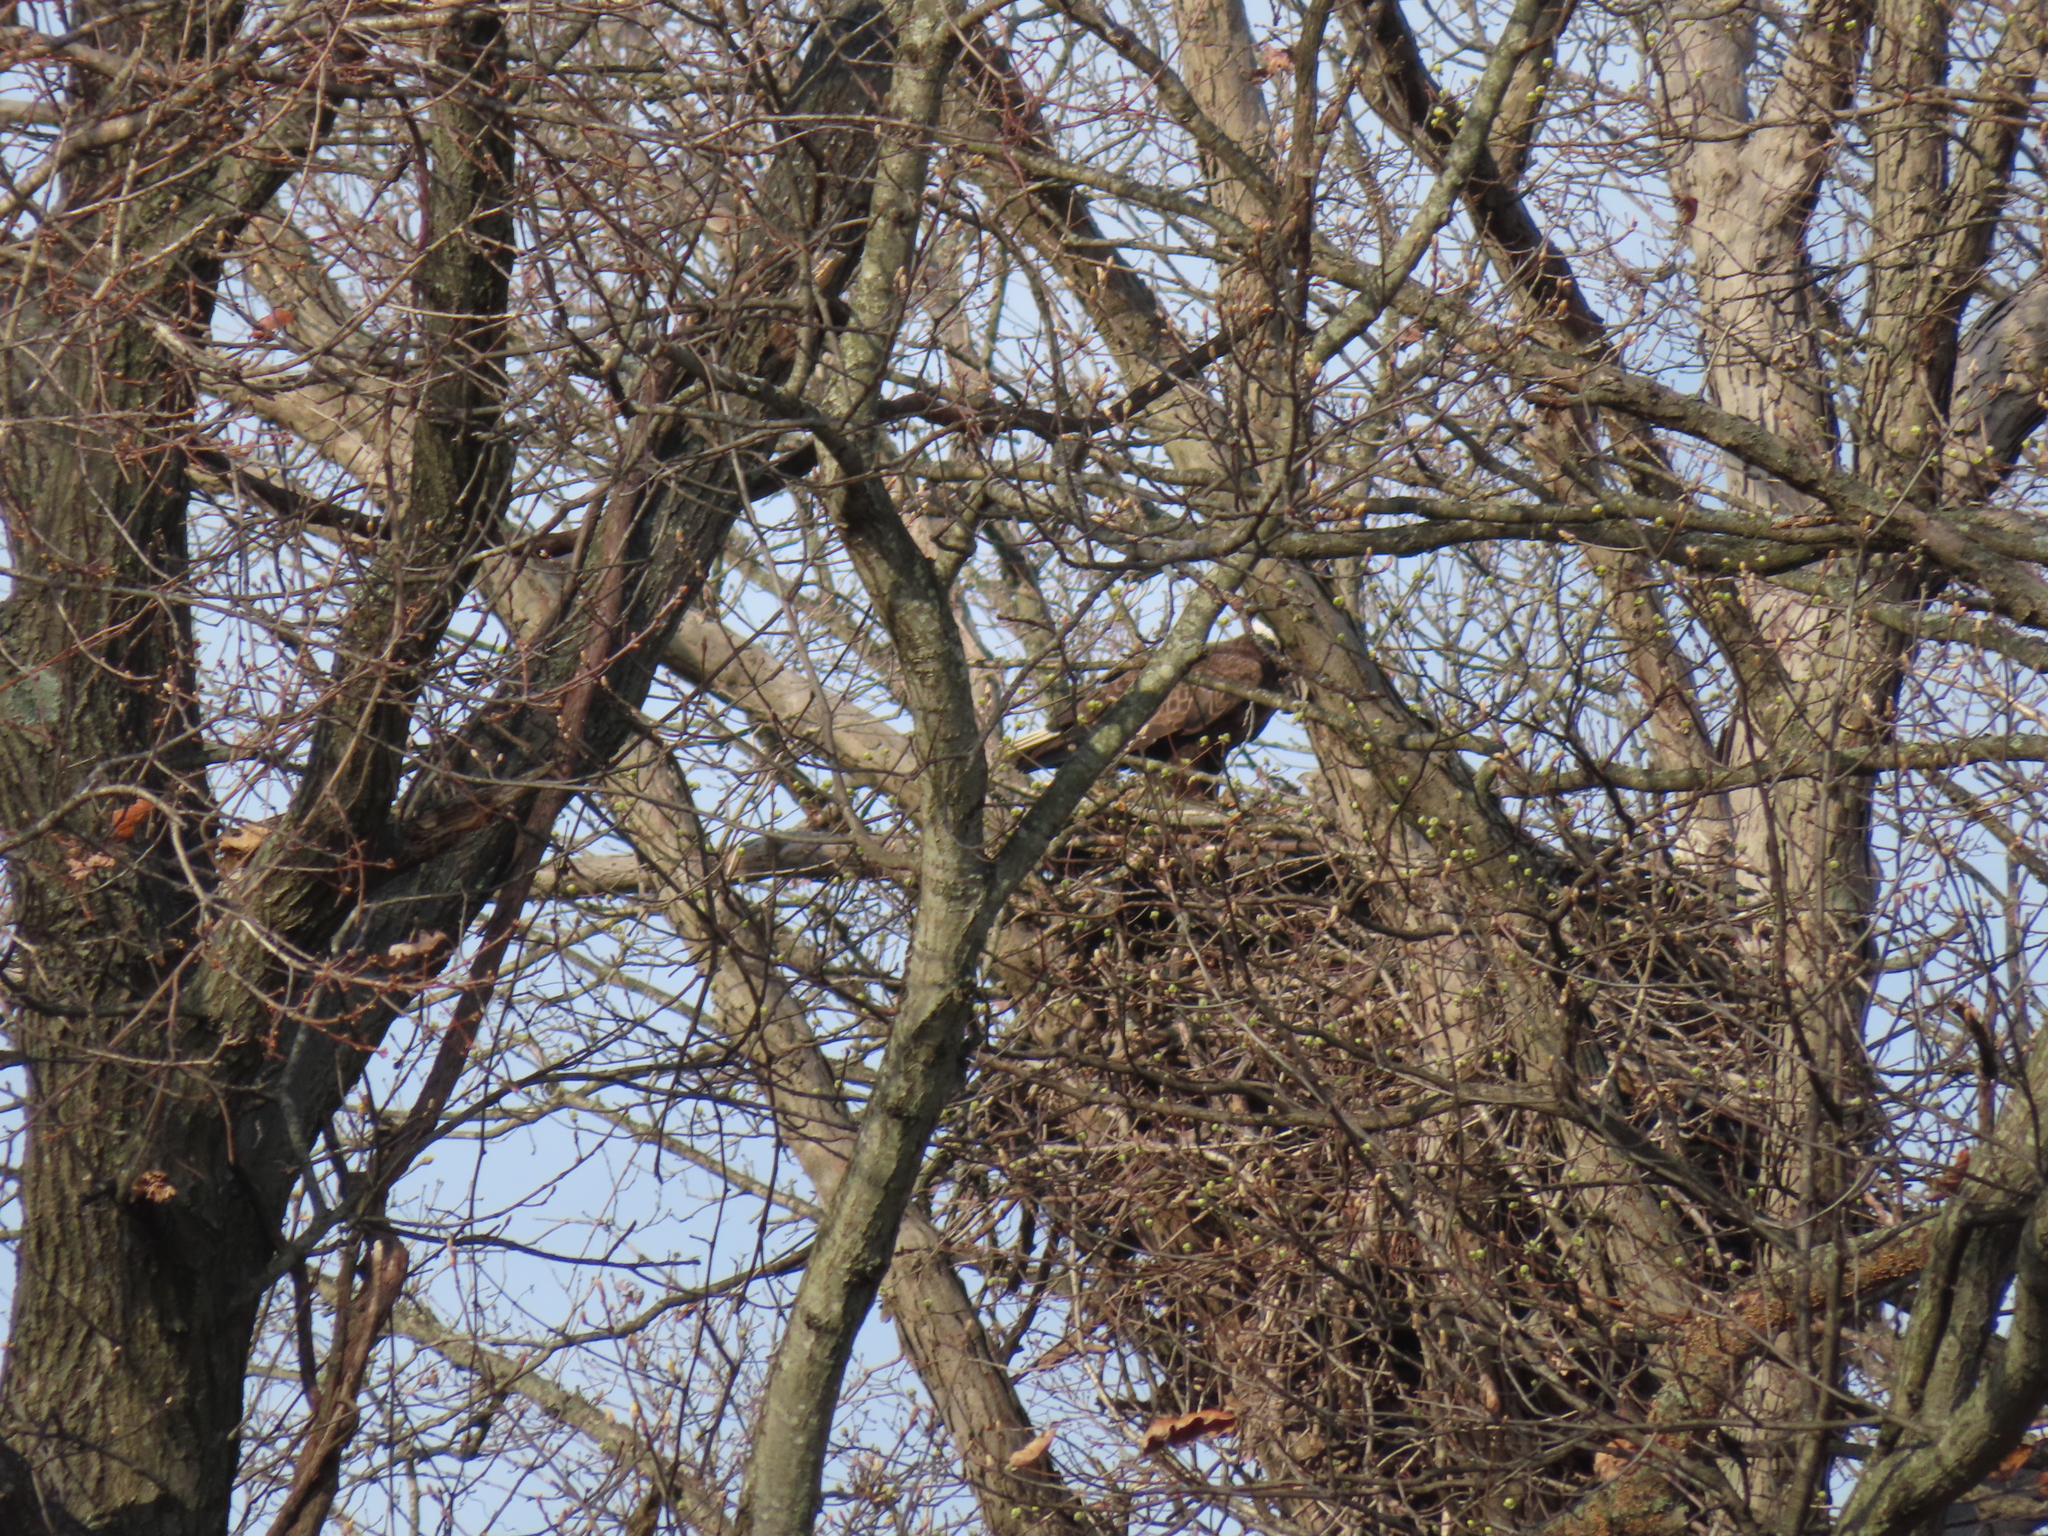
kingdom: Animalia
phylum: Chordata
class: Aves
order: Accipitriformes
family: Accipitridae
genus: Haliaeetus
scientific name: Haliaeetus leucocephalus
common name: Bald eagle
